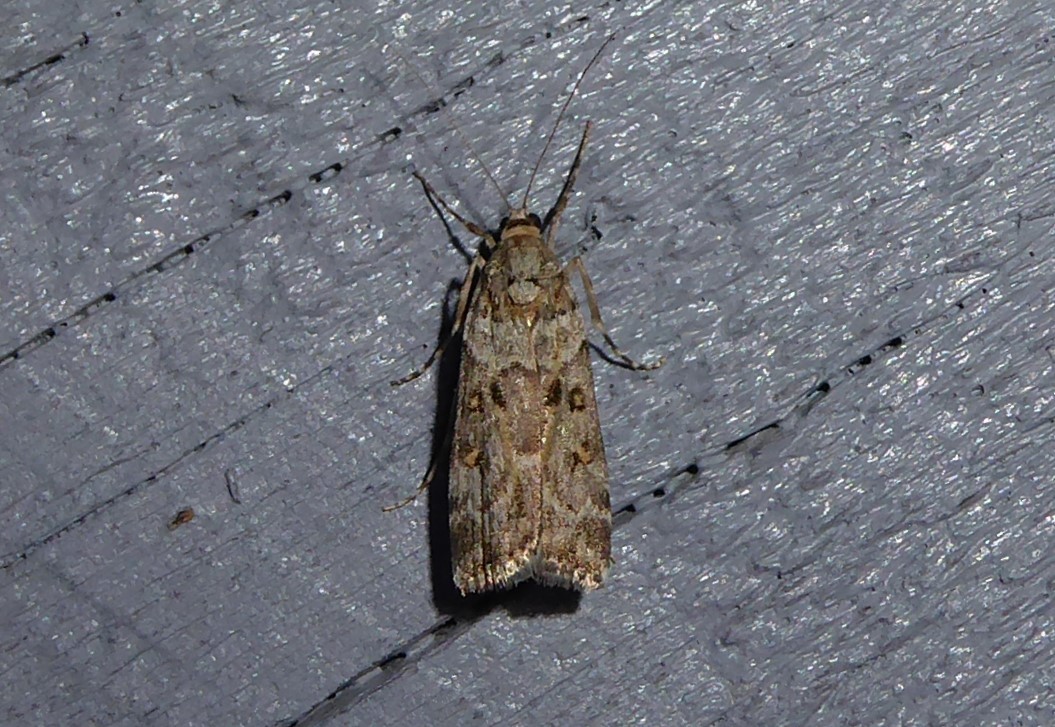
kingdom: Animalia
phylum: Arthropoda
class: Insecta
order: Lepidoptera
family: Crambidae
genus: Eudonia
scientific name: Eudonia diphtheralis
